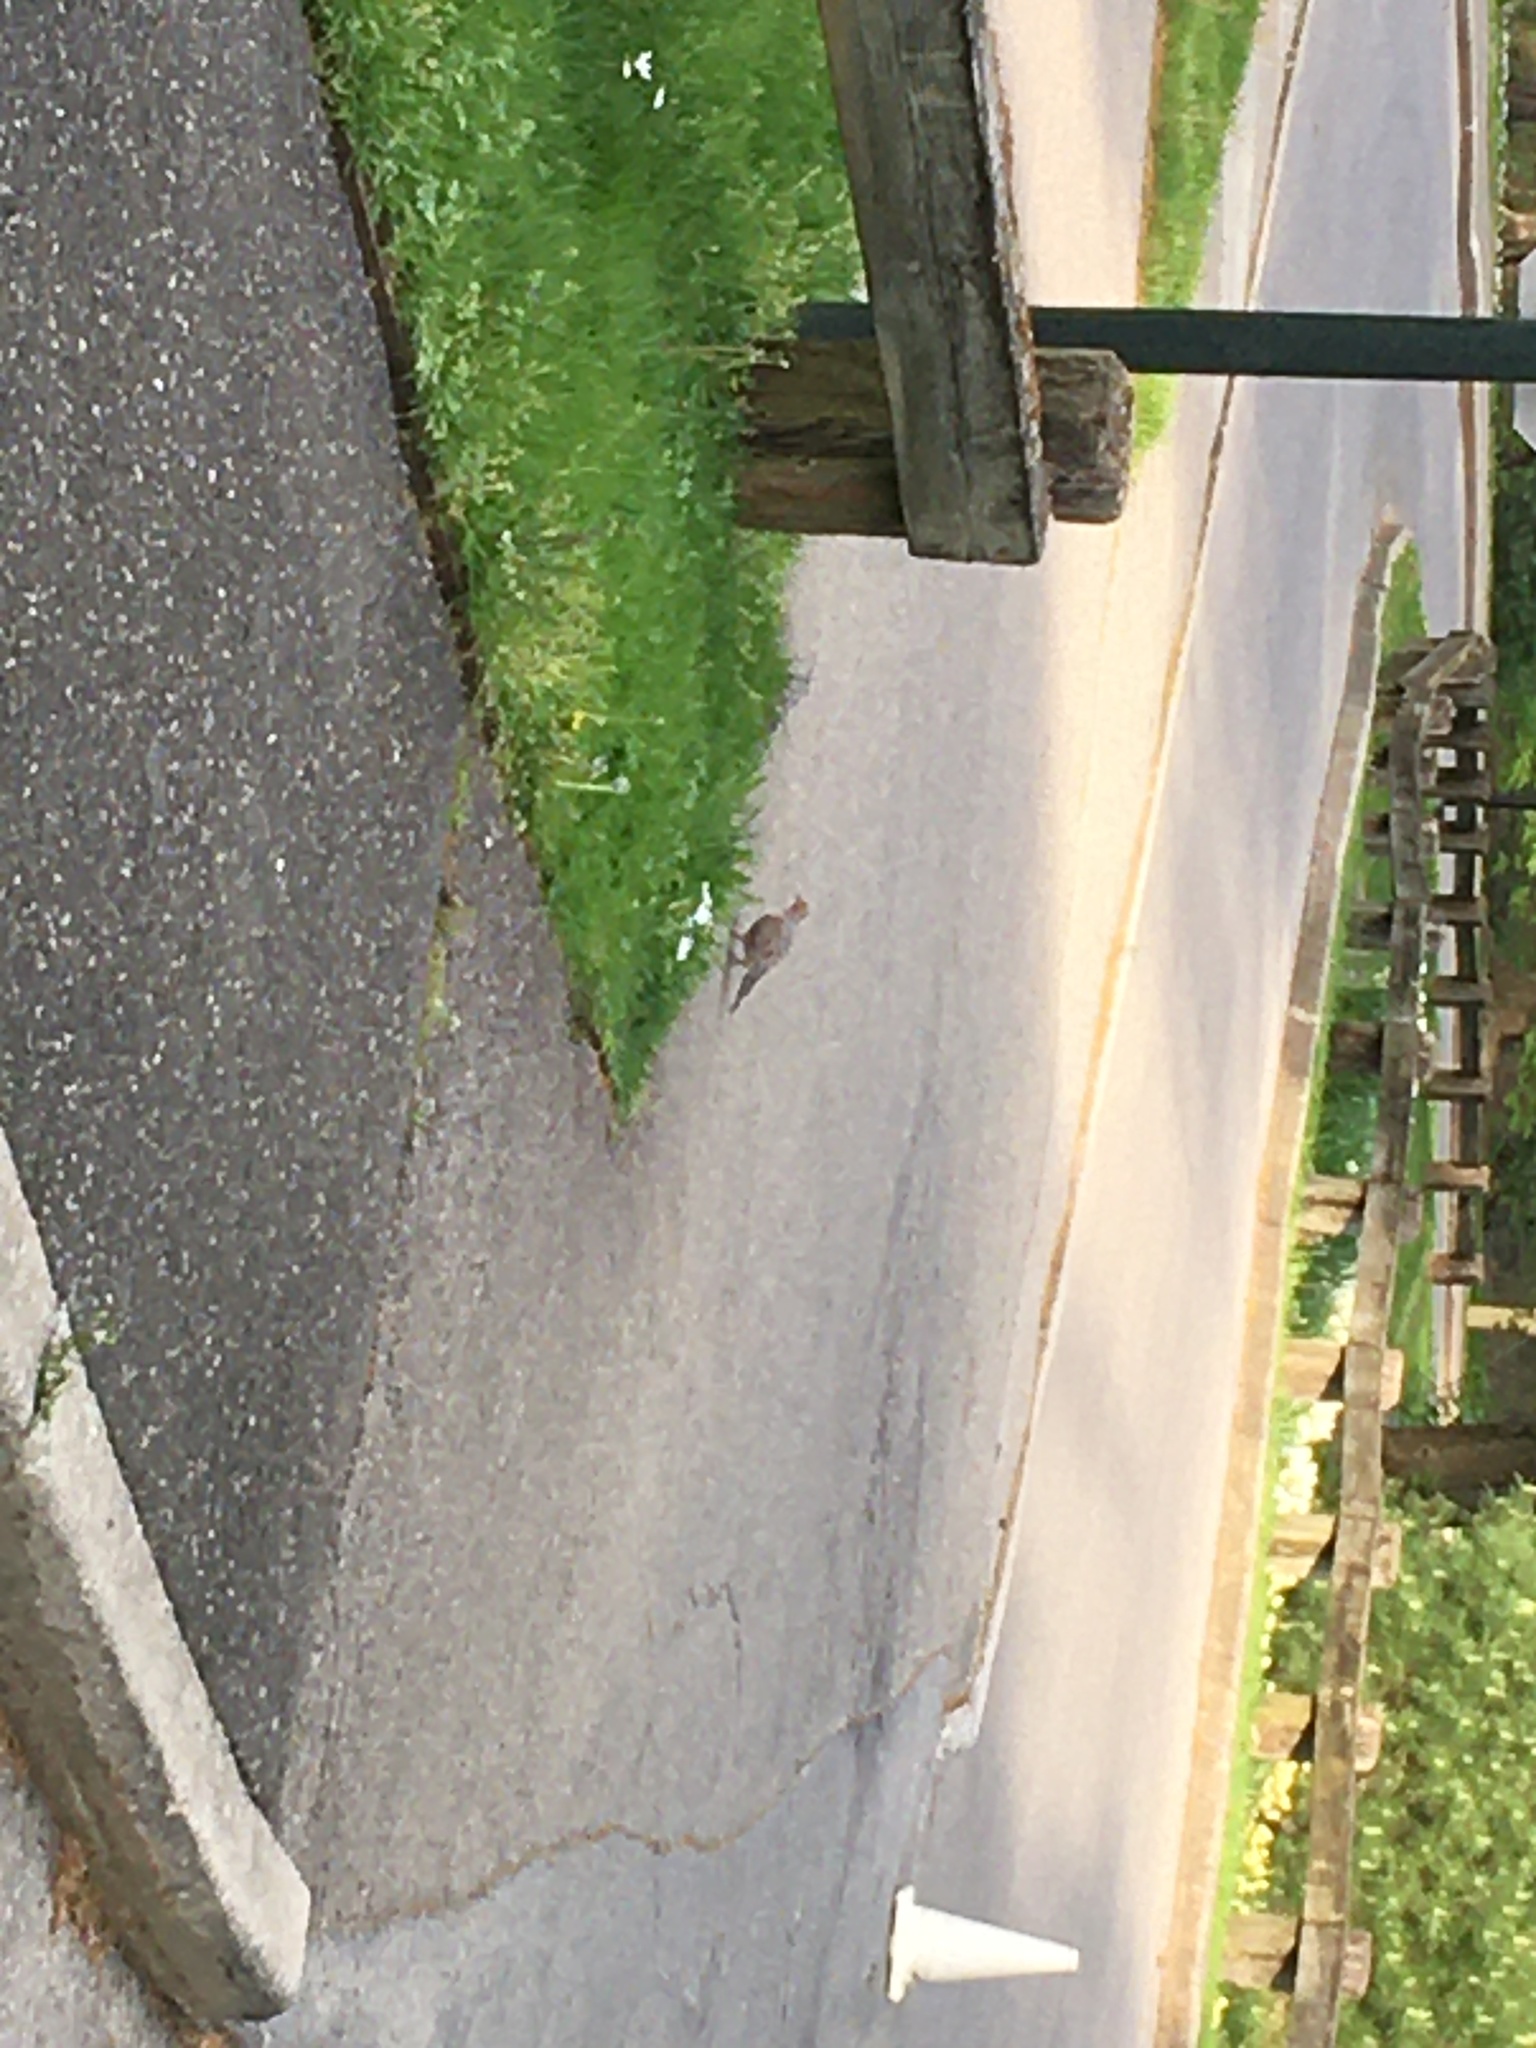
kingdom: Animalia
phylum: Chordata
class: Aves
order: Columbiformes
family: Columbidae
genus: Zenaida
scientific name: Zenaida macroura
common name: Mourning dove
